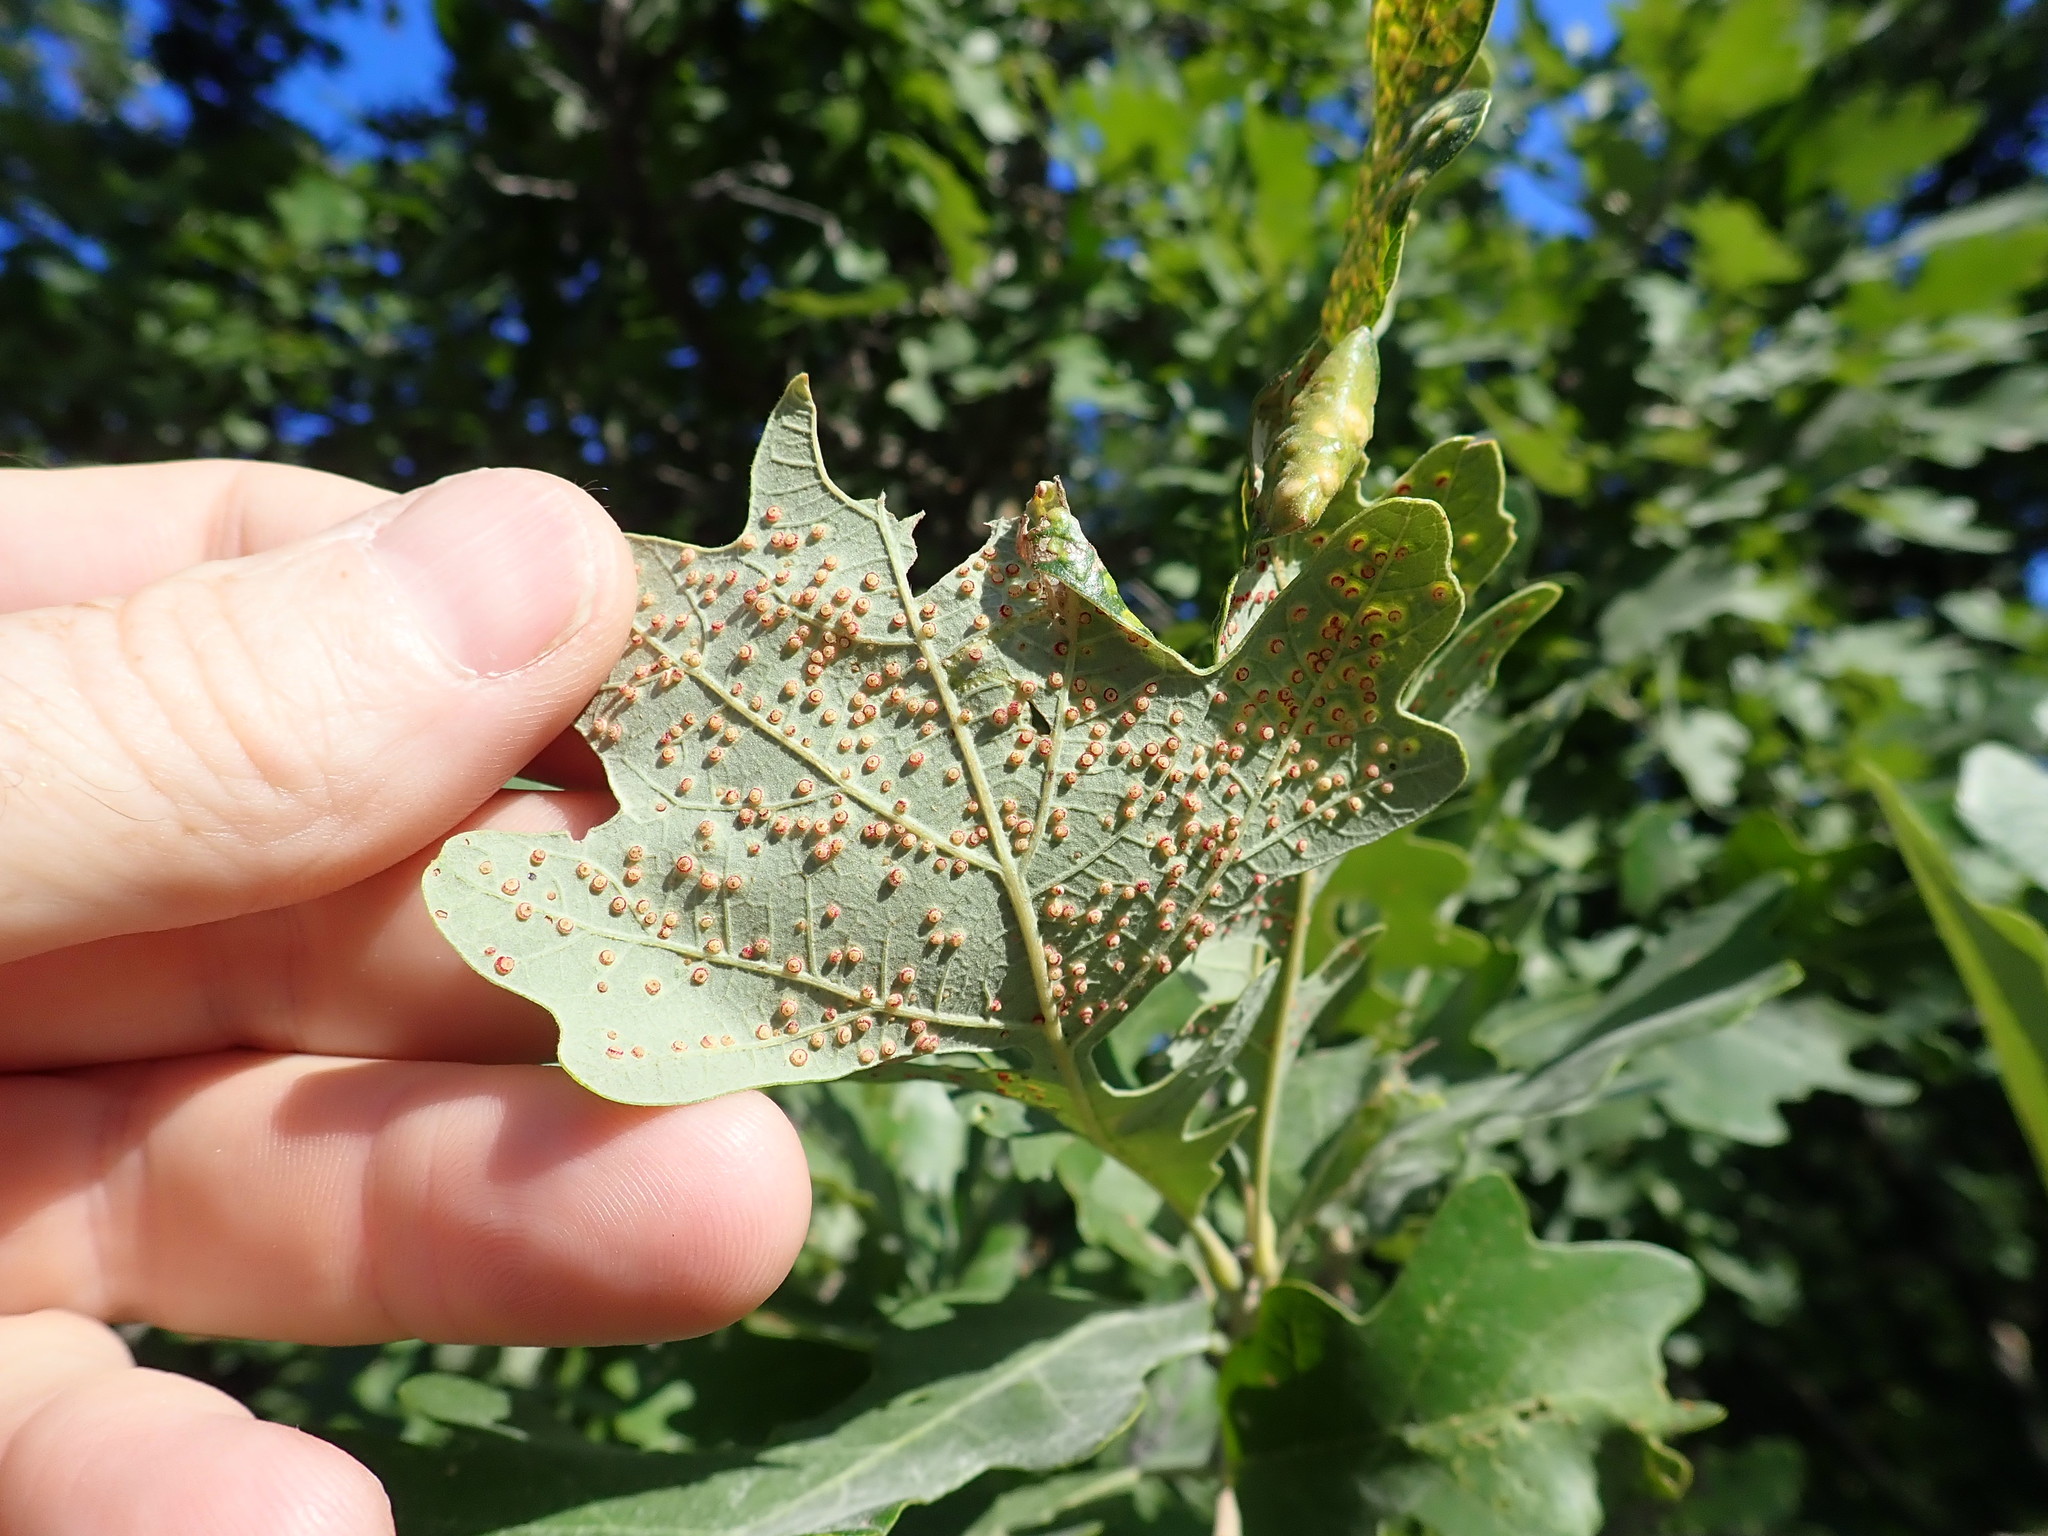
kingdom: Animalia
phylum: Arthropoda
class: Insecta
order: Hymenoptera
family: Cynipidae
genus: Neuroterus
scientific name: Neuroterus saltarius
